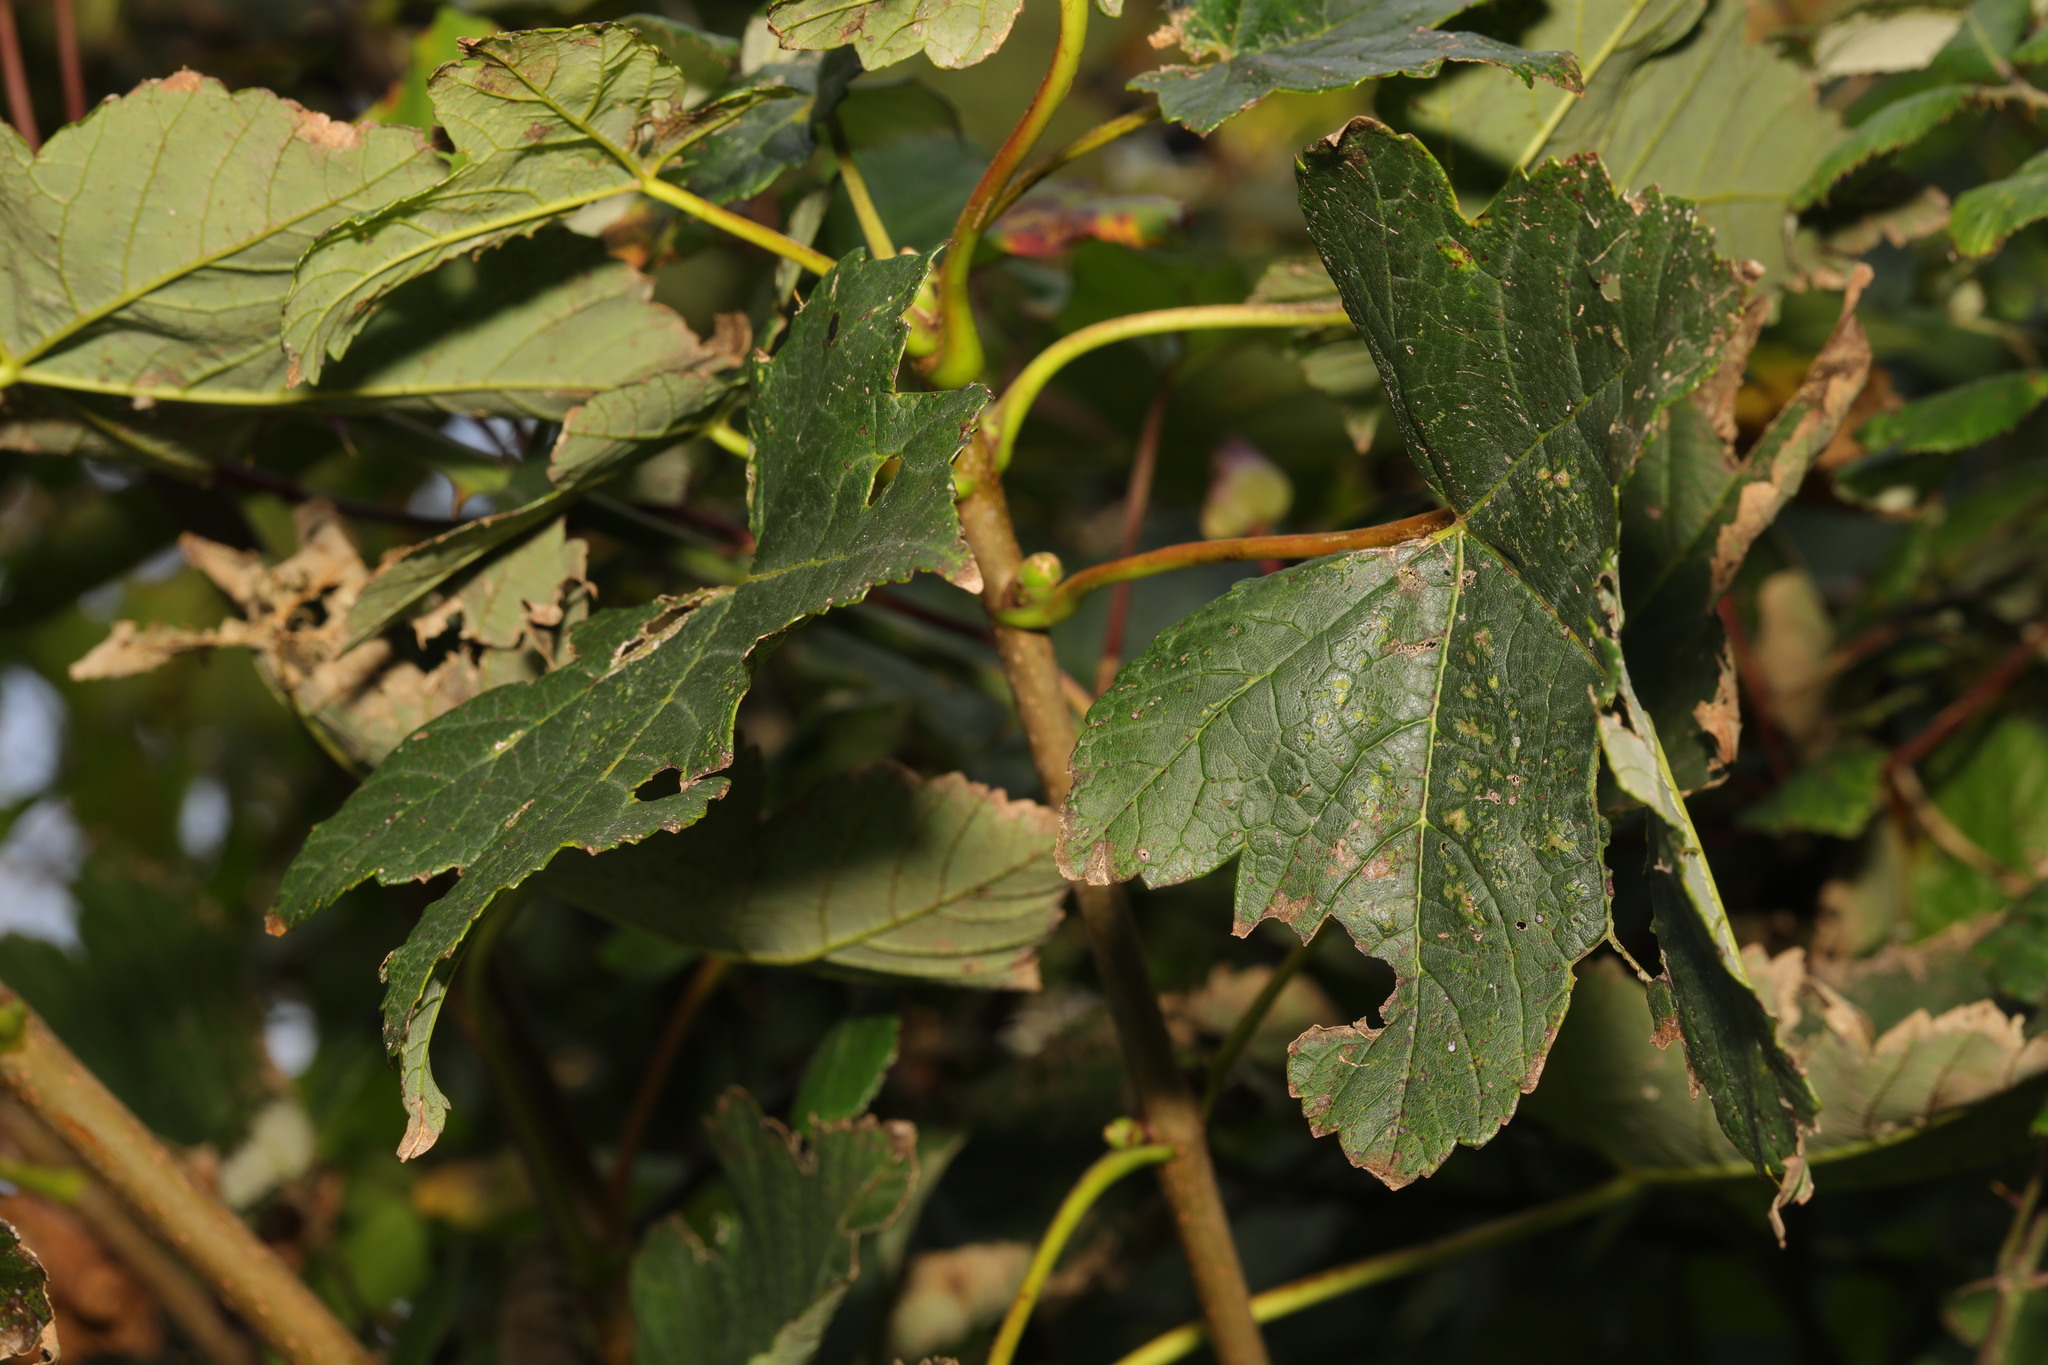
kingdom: Plantae
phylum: Tracheophyta
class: Magnoliopsida
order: Sapindales
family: Sapindaceae
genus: Acer
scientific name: Acer pseudoplatanus
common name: Sycamore
